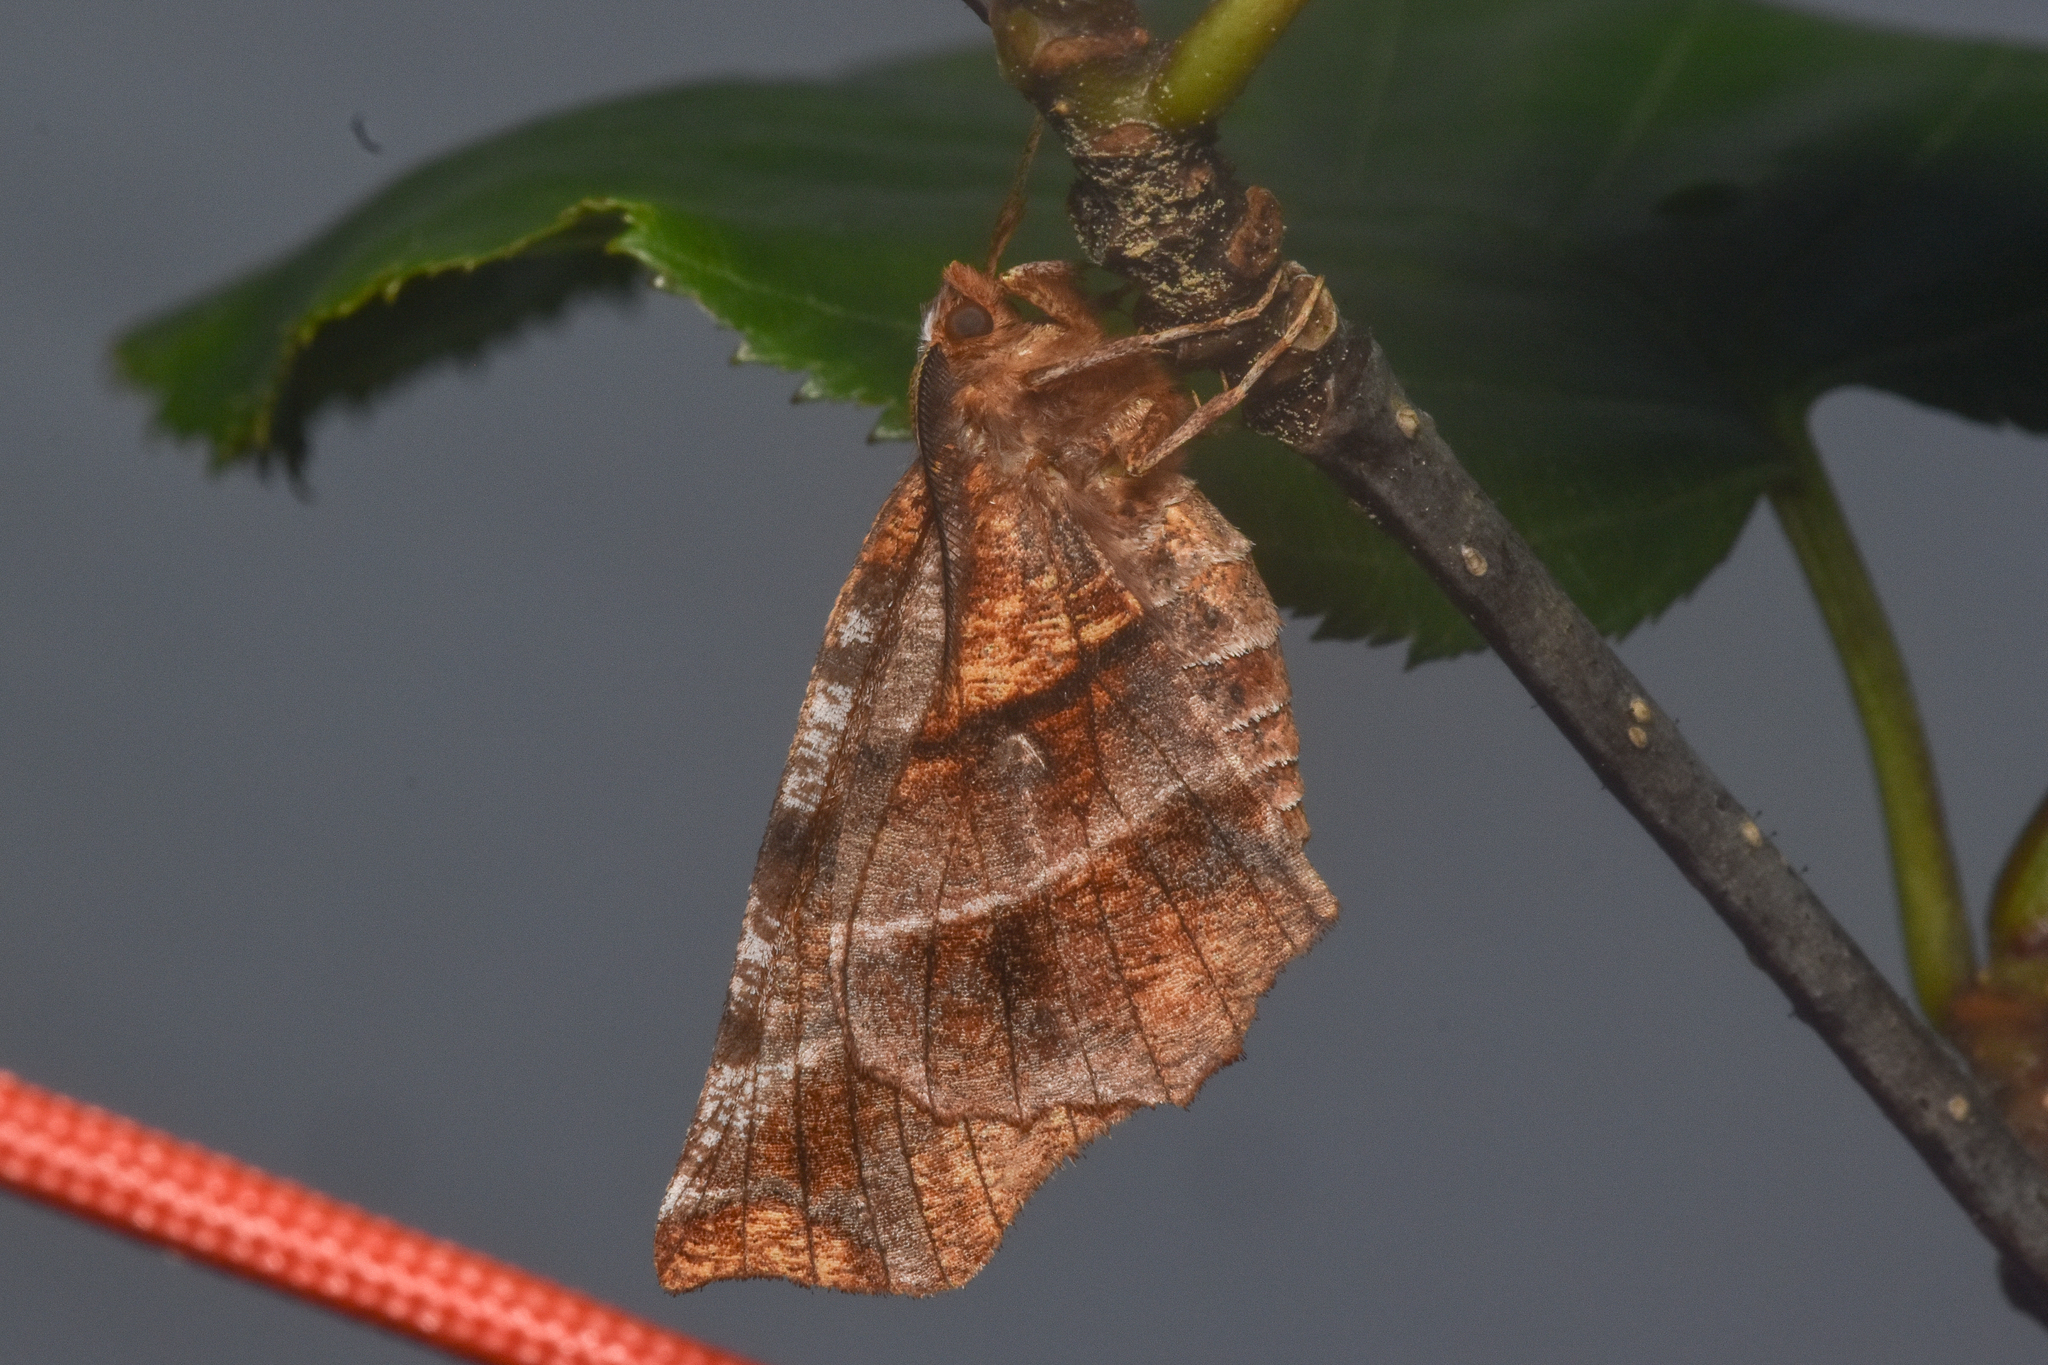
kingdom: Animalia
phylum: Arthropoda
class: Insecta
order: Lepidoptera
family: Geometridae
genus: Selenia
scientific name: Selenia alciphearia
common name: Brown-tipped thorn
